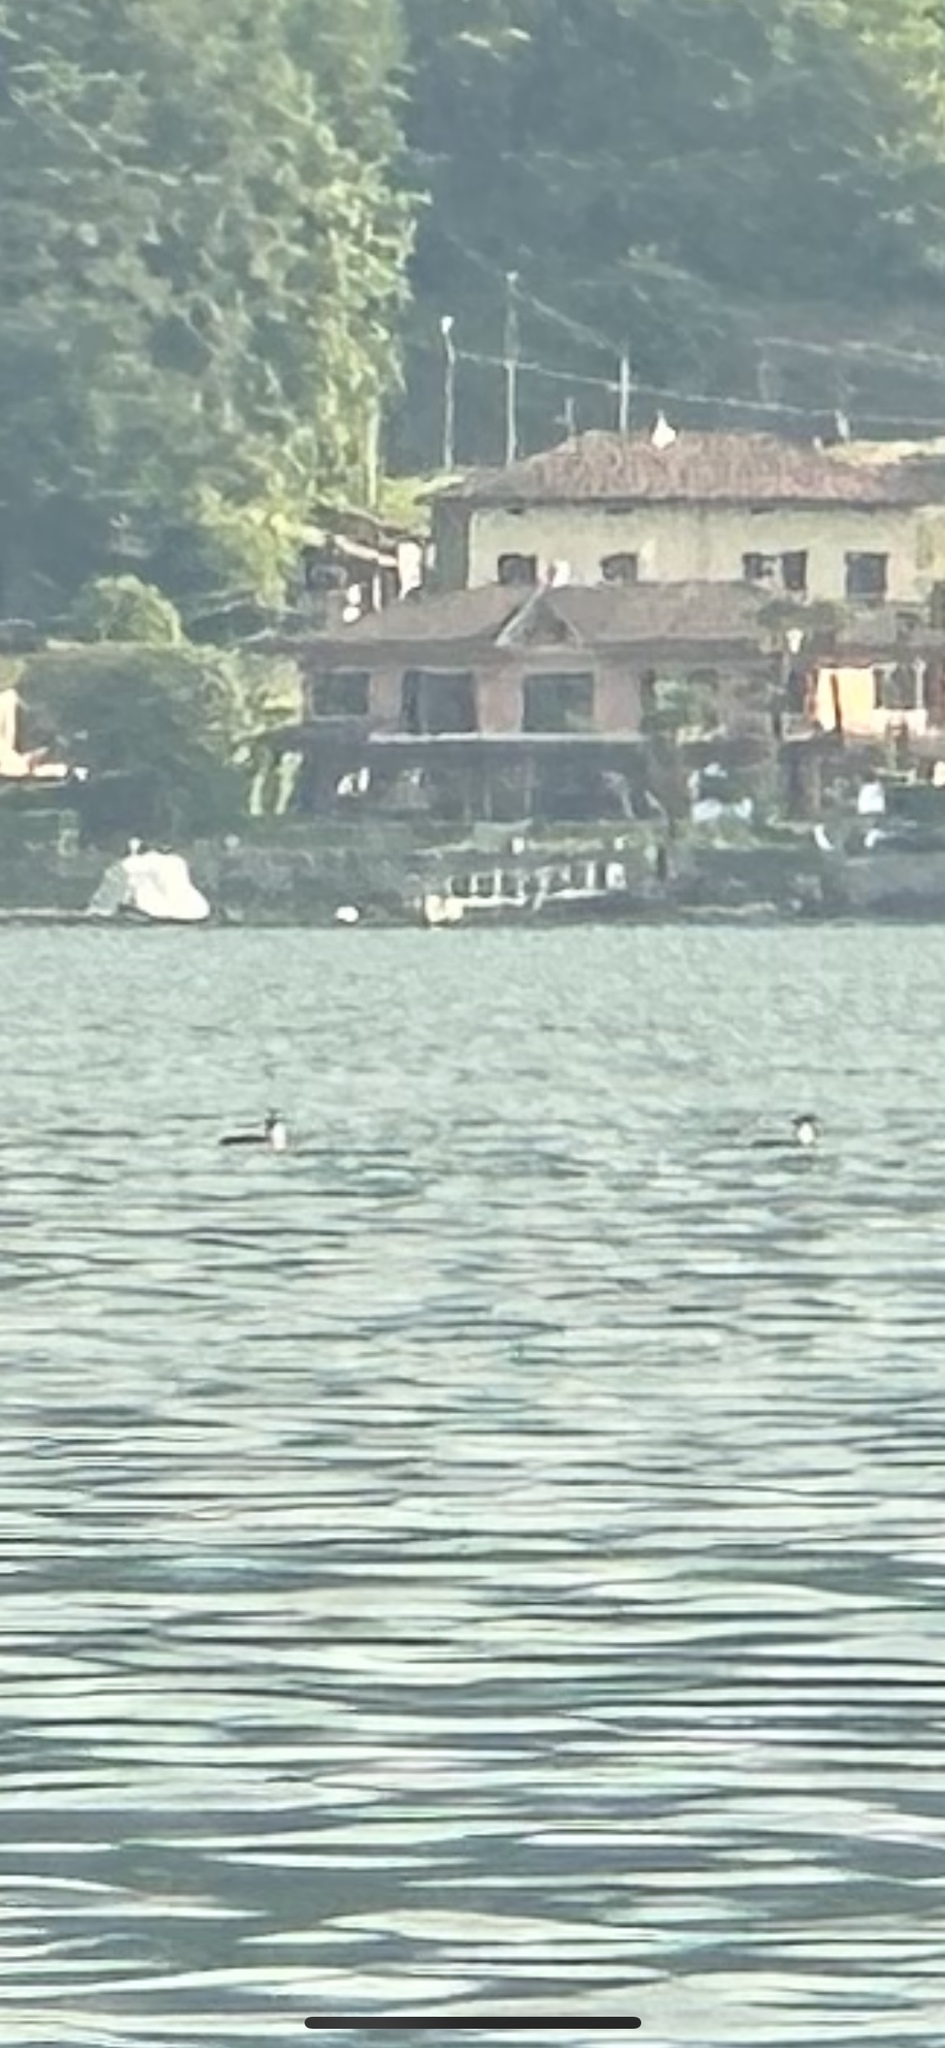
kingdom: Animalia
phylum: Chordata
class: Aves
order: Podicipediformes
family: Podicipedidae
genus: Podiceps
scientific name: Podiceps cristatus
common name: Great crested grebe
